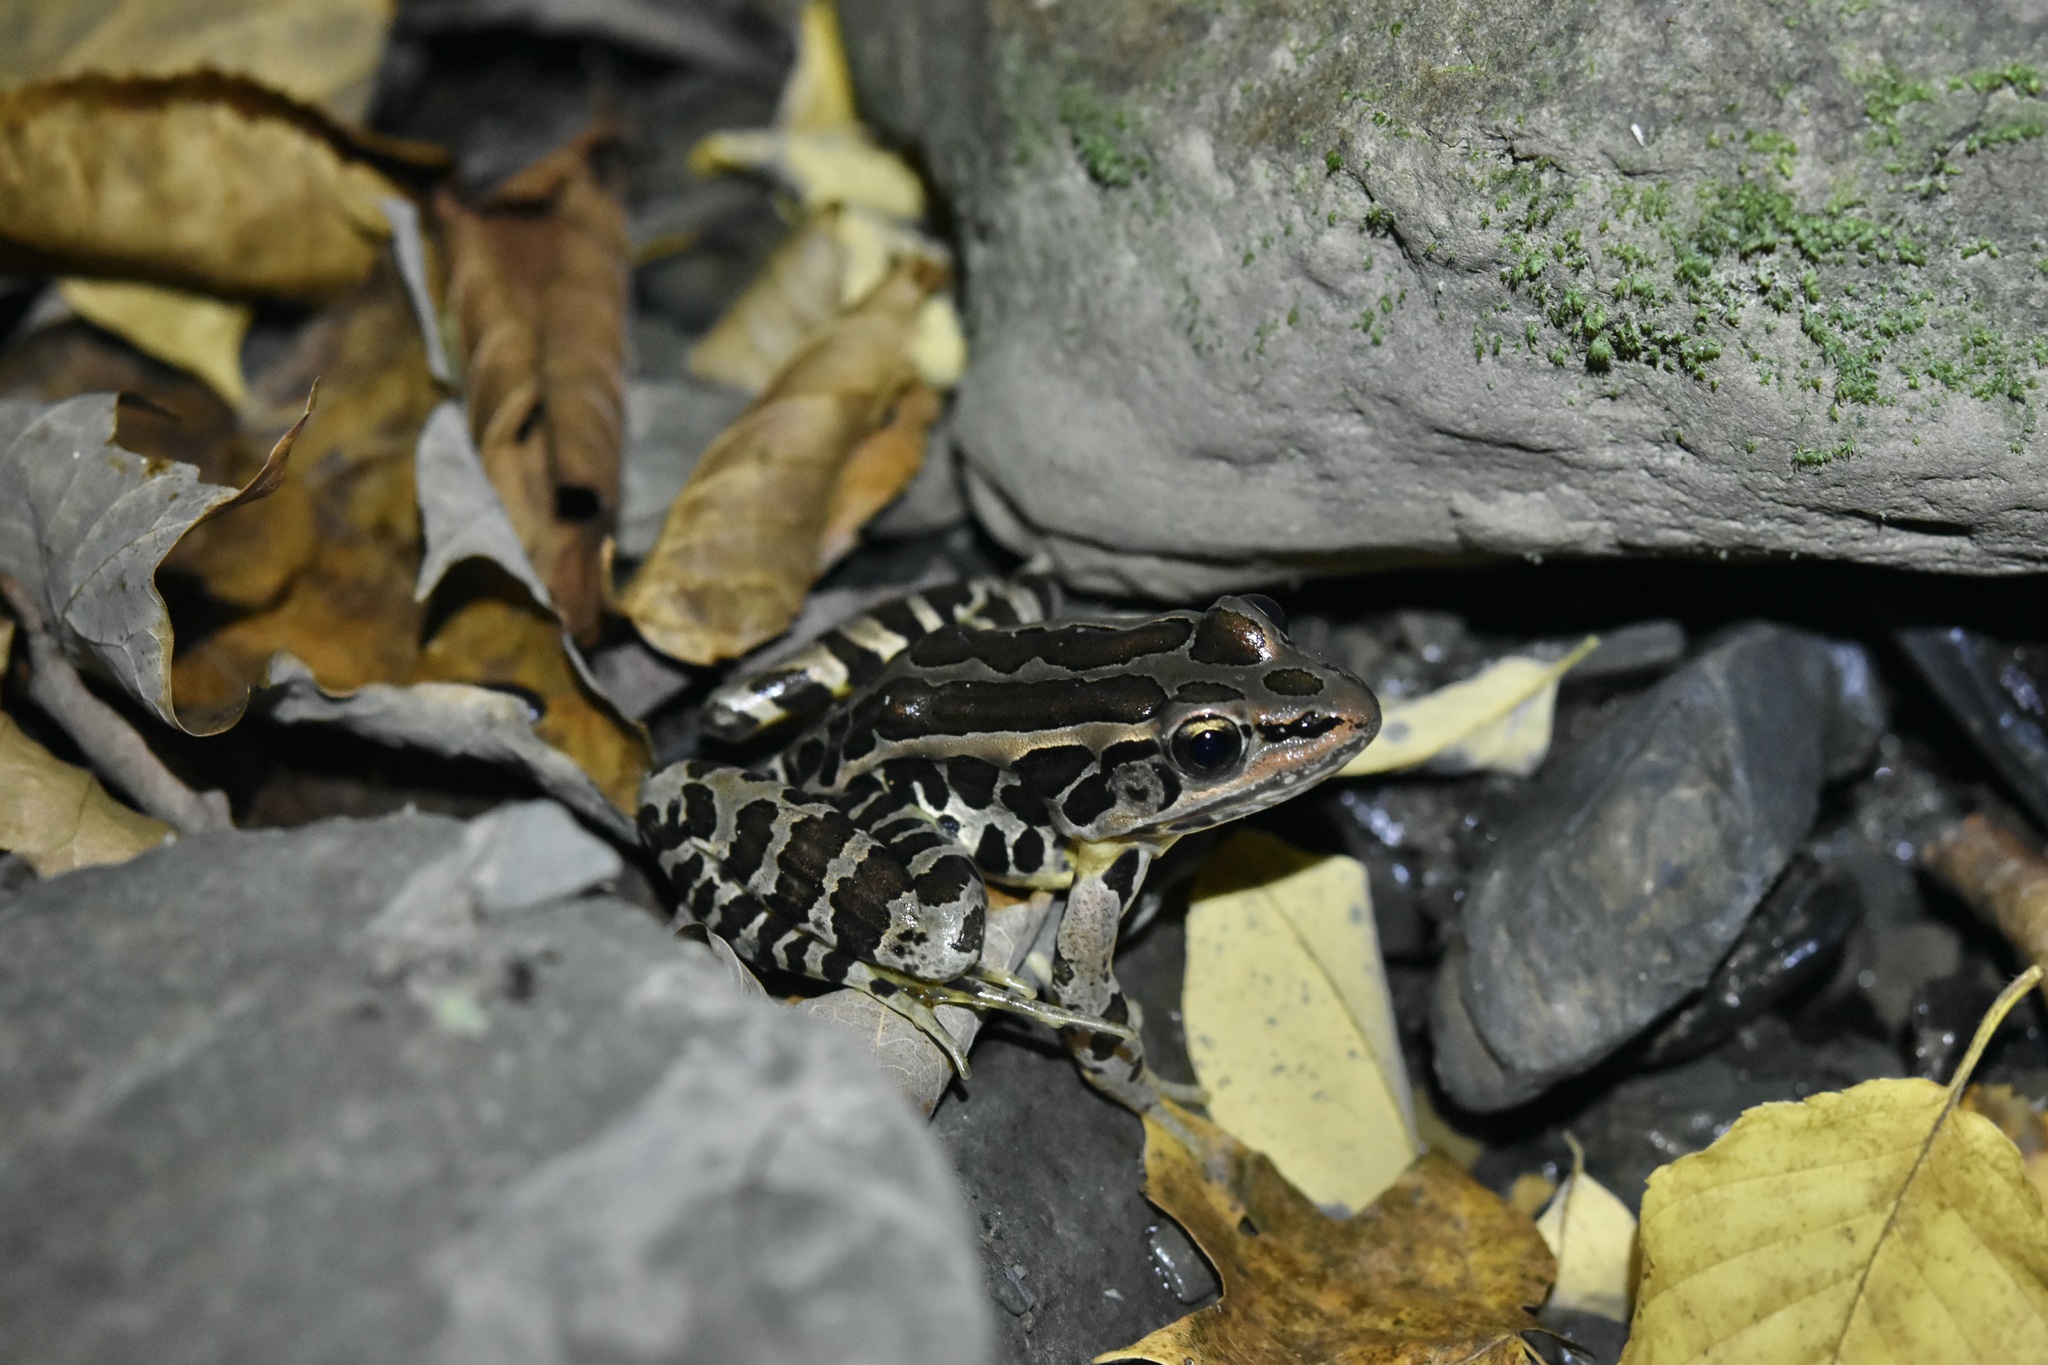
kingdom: Animalia
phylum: Chordata
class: Amphibia
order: Anura
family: Ranidae
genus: Lithobates
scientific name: Lithobates palustris
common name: Pickerel frog
